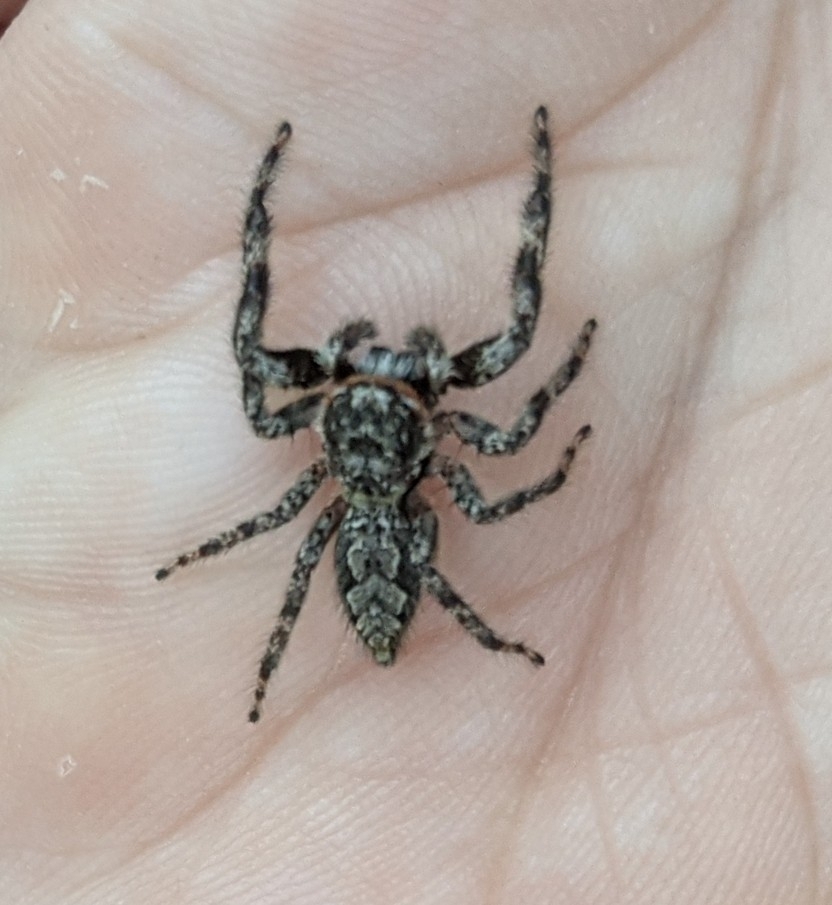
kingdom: Animalia
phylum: Arthropoda
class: Arachnida
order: Araneae
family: Salticidae
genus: Platycryptus
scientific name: Platycryptus undatus
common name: Tan jumping spider
